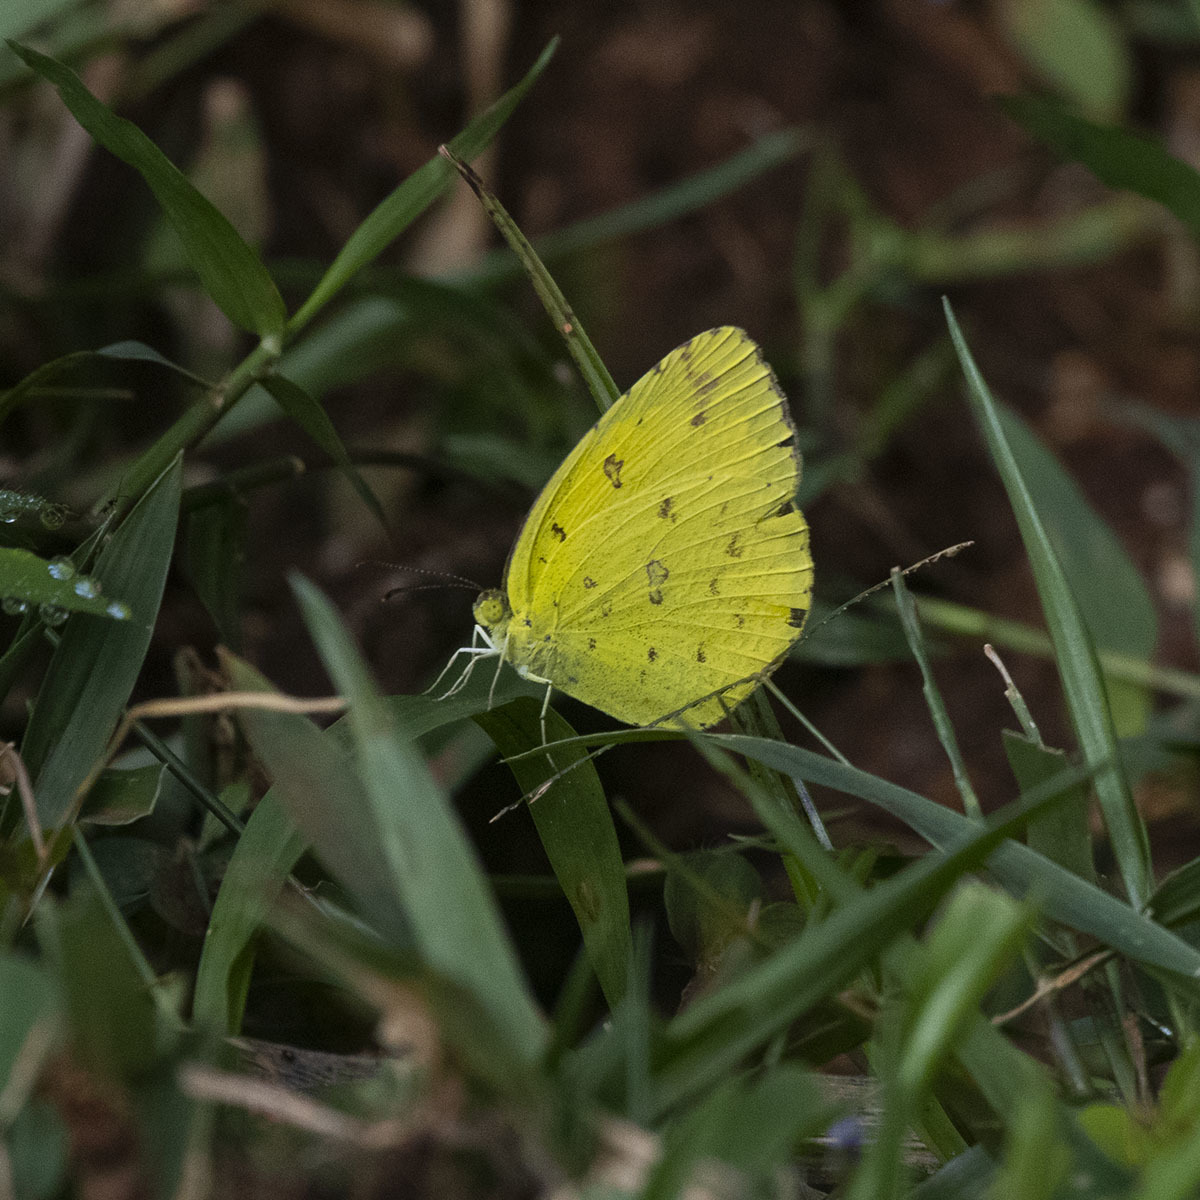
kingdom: Animalia
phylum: Arthropoda
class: Insecta
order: Lepidoptera
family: Pieridae
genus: Eurema
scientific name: Eurema hecabe
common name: Pale grass yellow
